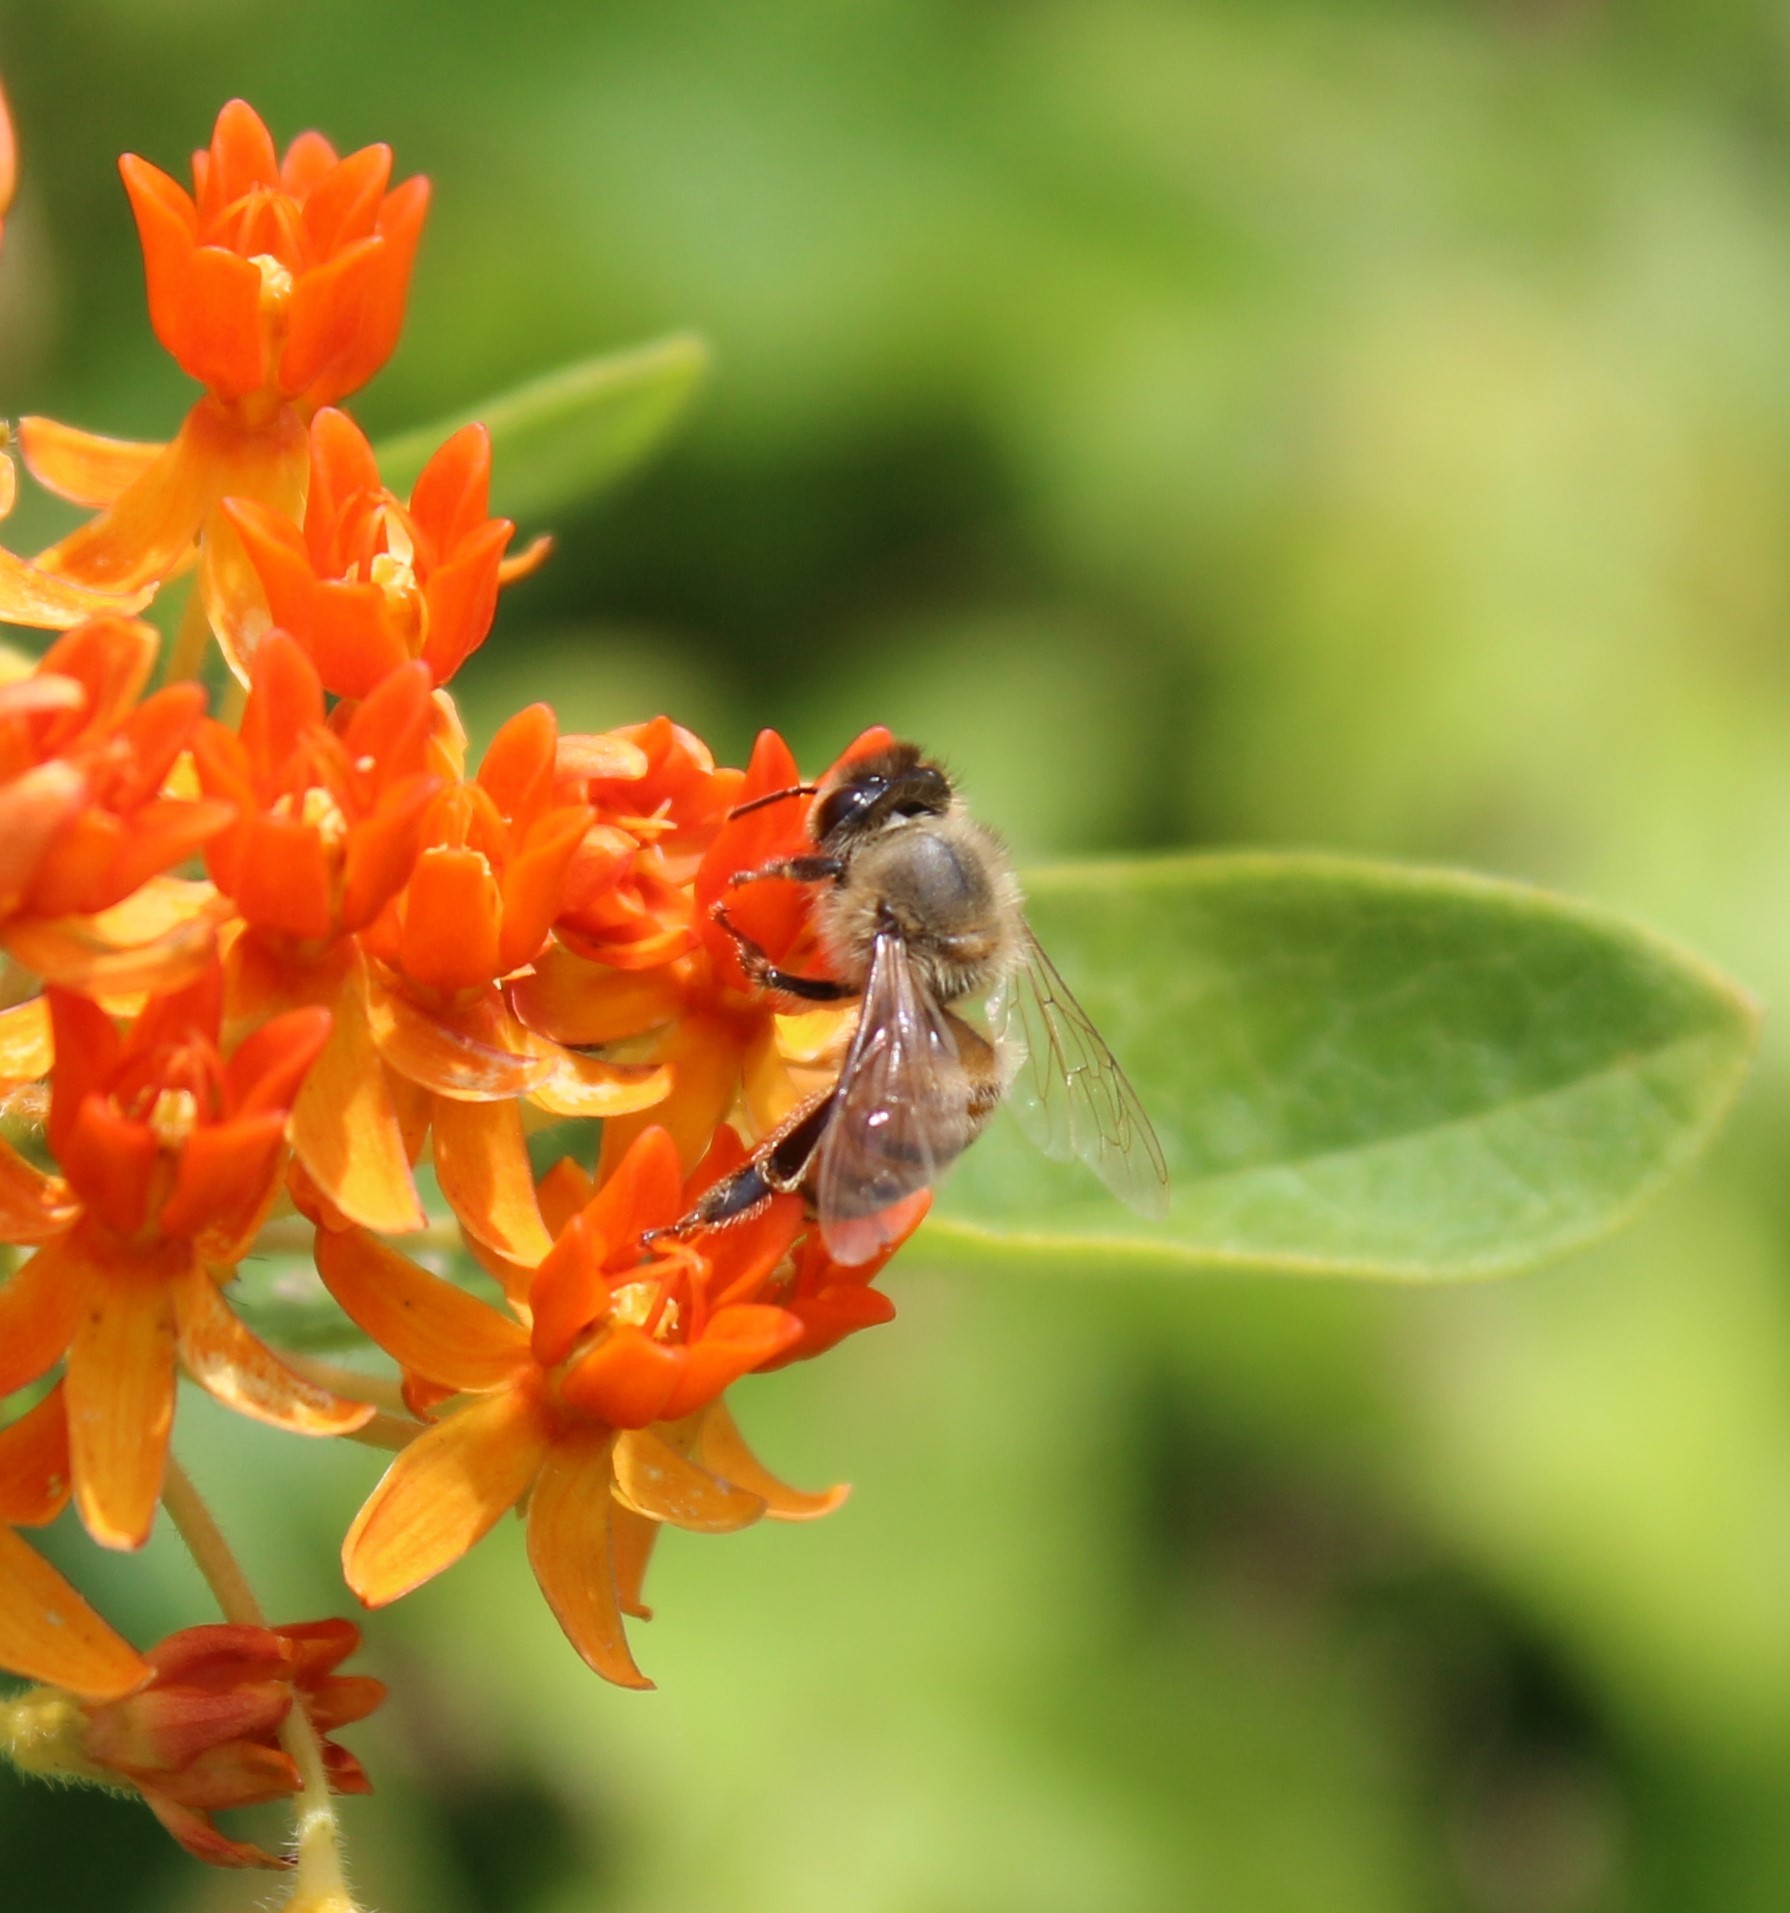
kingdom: Animalia
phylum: Arthropoda
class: Insecta
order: Hymenoptera
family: Apidae
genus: Apis
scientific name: Apis mellifera
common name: Honey bee
